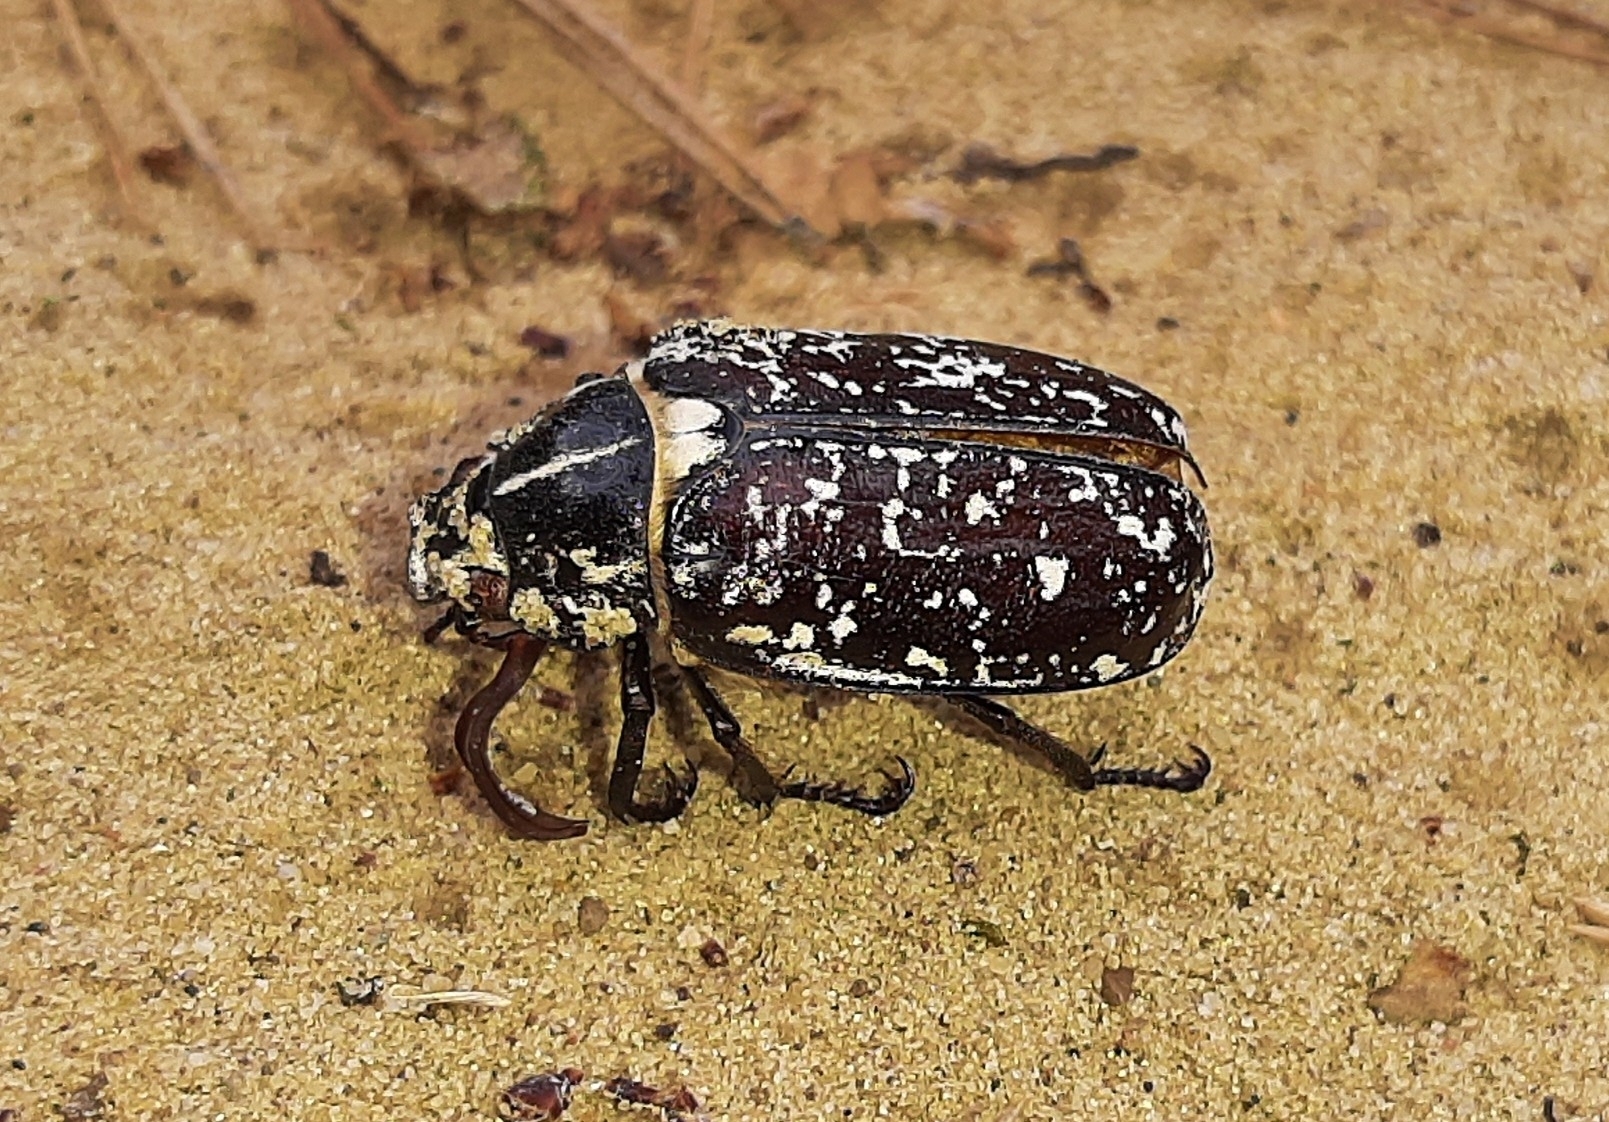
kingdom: Animalia
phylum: Arthropoda
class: Insecta
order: Coleoptera
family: Scarabaeidae
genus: Polyphylla
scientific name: Polyphylla fullo
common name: Pine chafer
